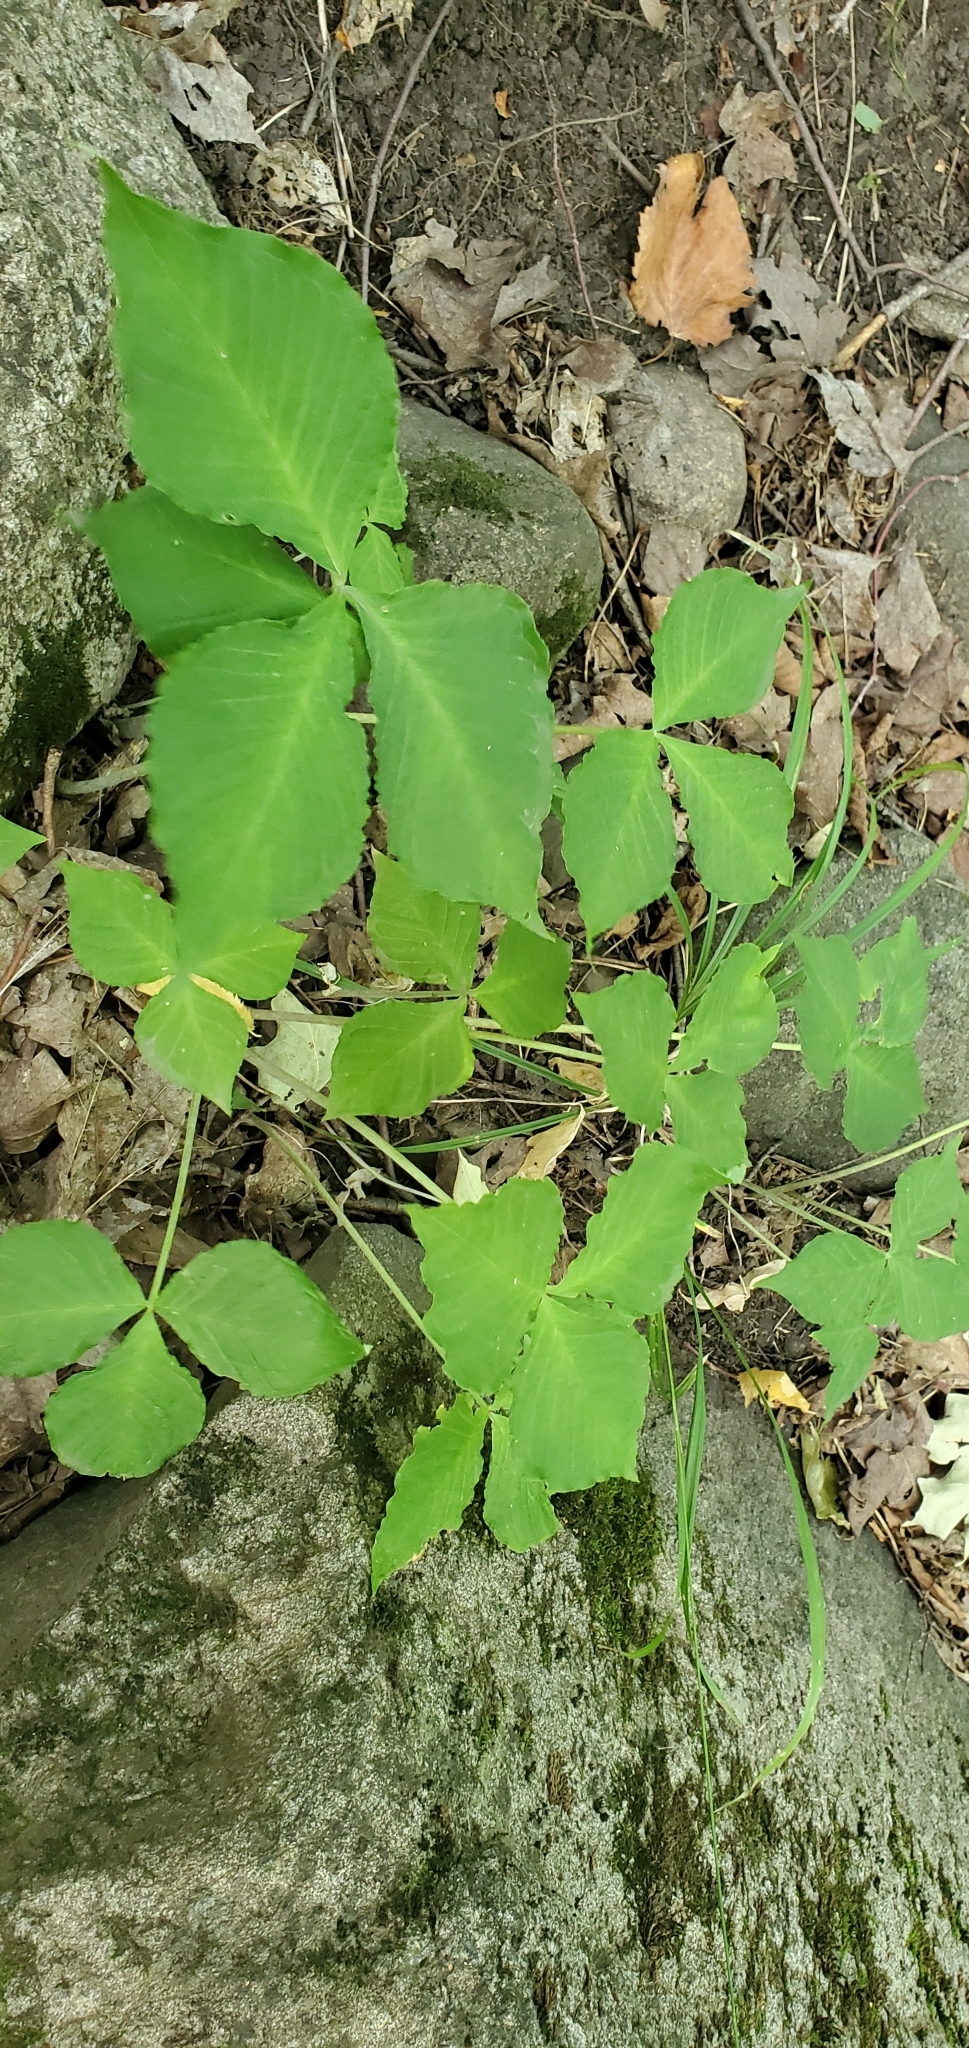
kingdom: Plantae
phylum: Tracheophyta
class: Liliopsida
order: Alismatales
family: Araceae
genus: Arisaema
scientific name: Arisaema triphyllum
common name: Jack-in-the-pulpit
